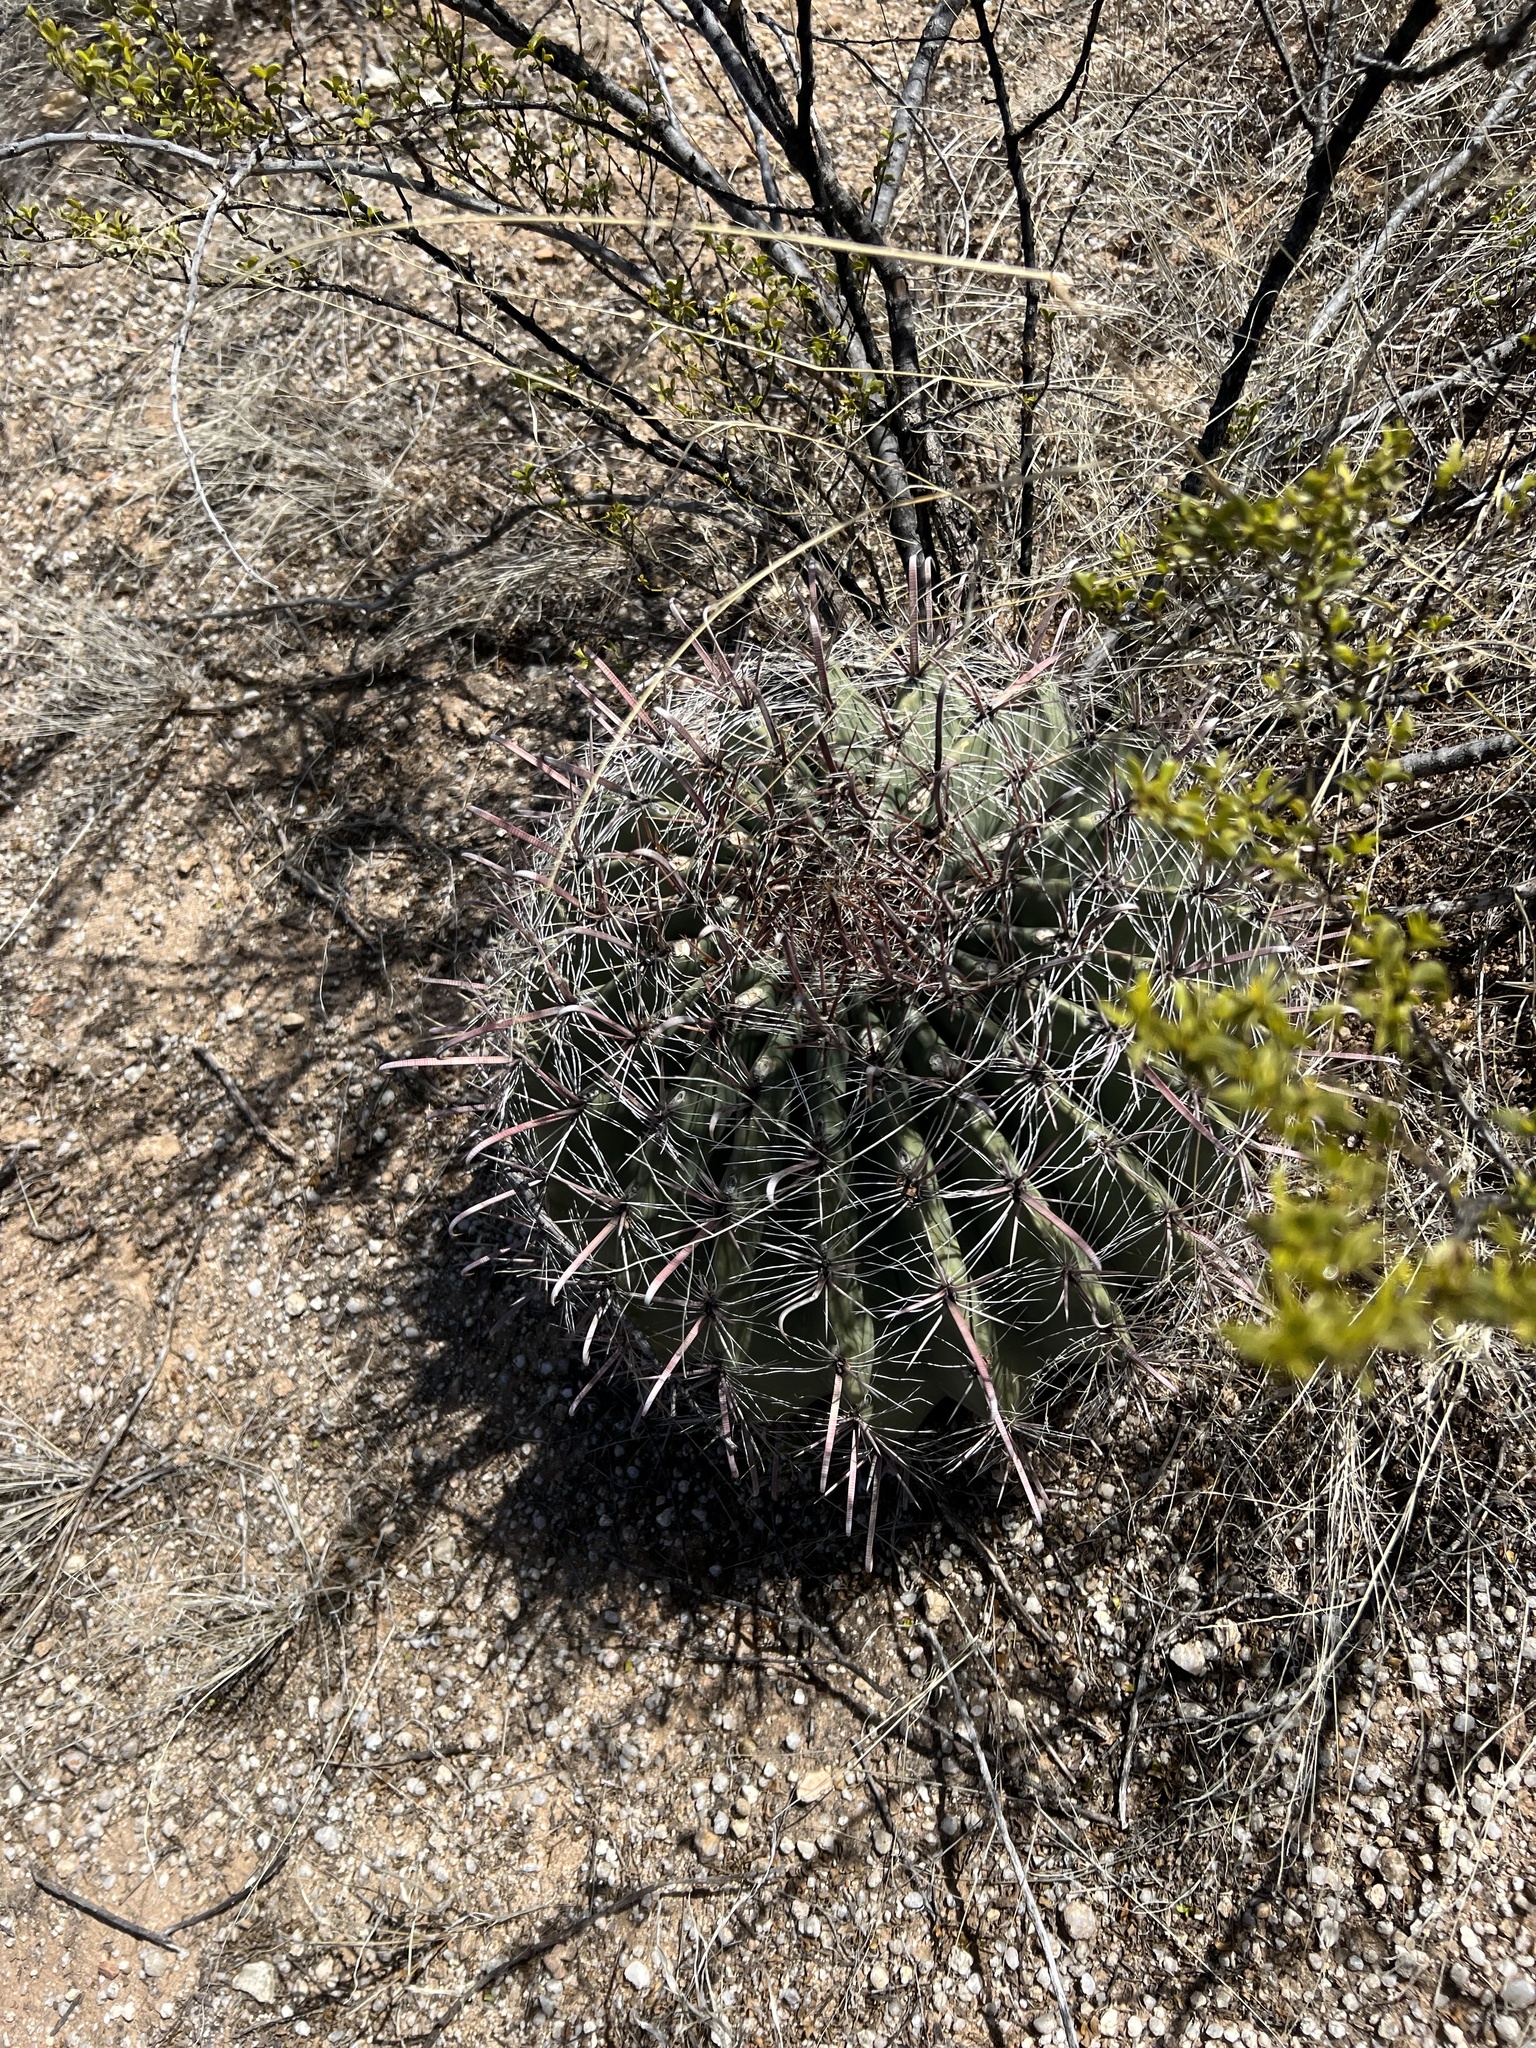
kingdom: Plantae
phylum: Tracheophyta
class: Magnoliopsida
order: Caryophyllales
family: Cactaceae
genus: Ferocactus
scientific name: Ferocactus wislizeni
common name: Candy barrel cactus
